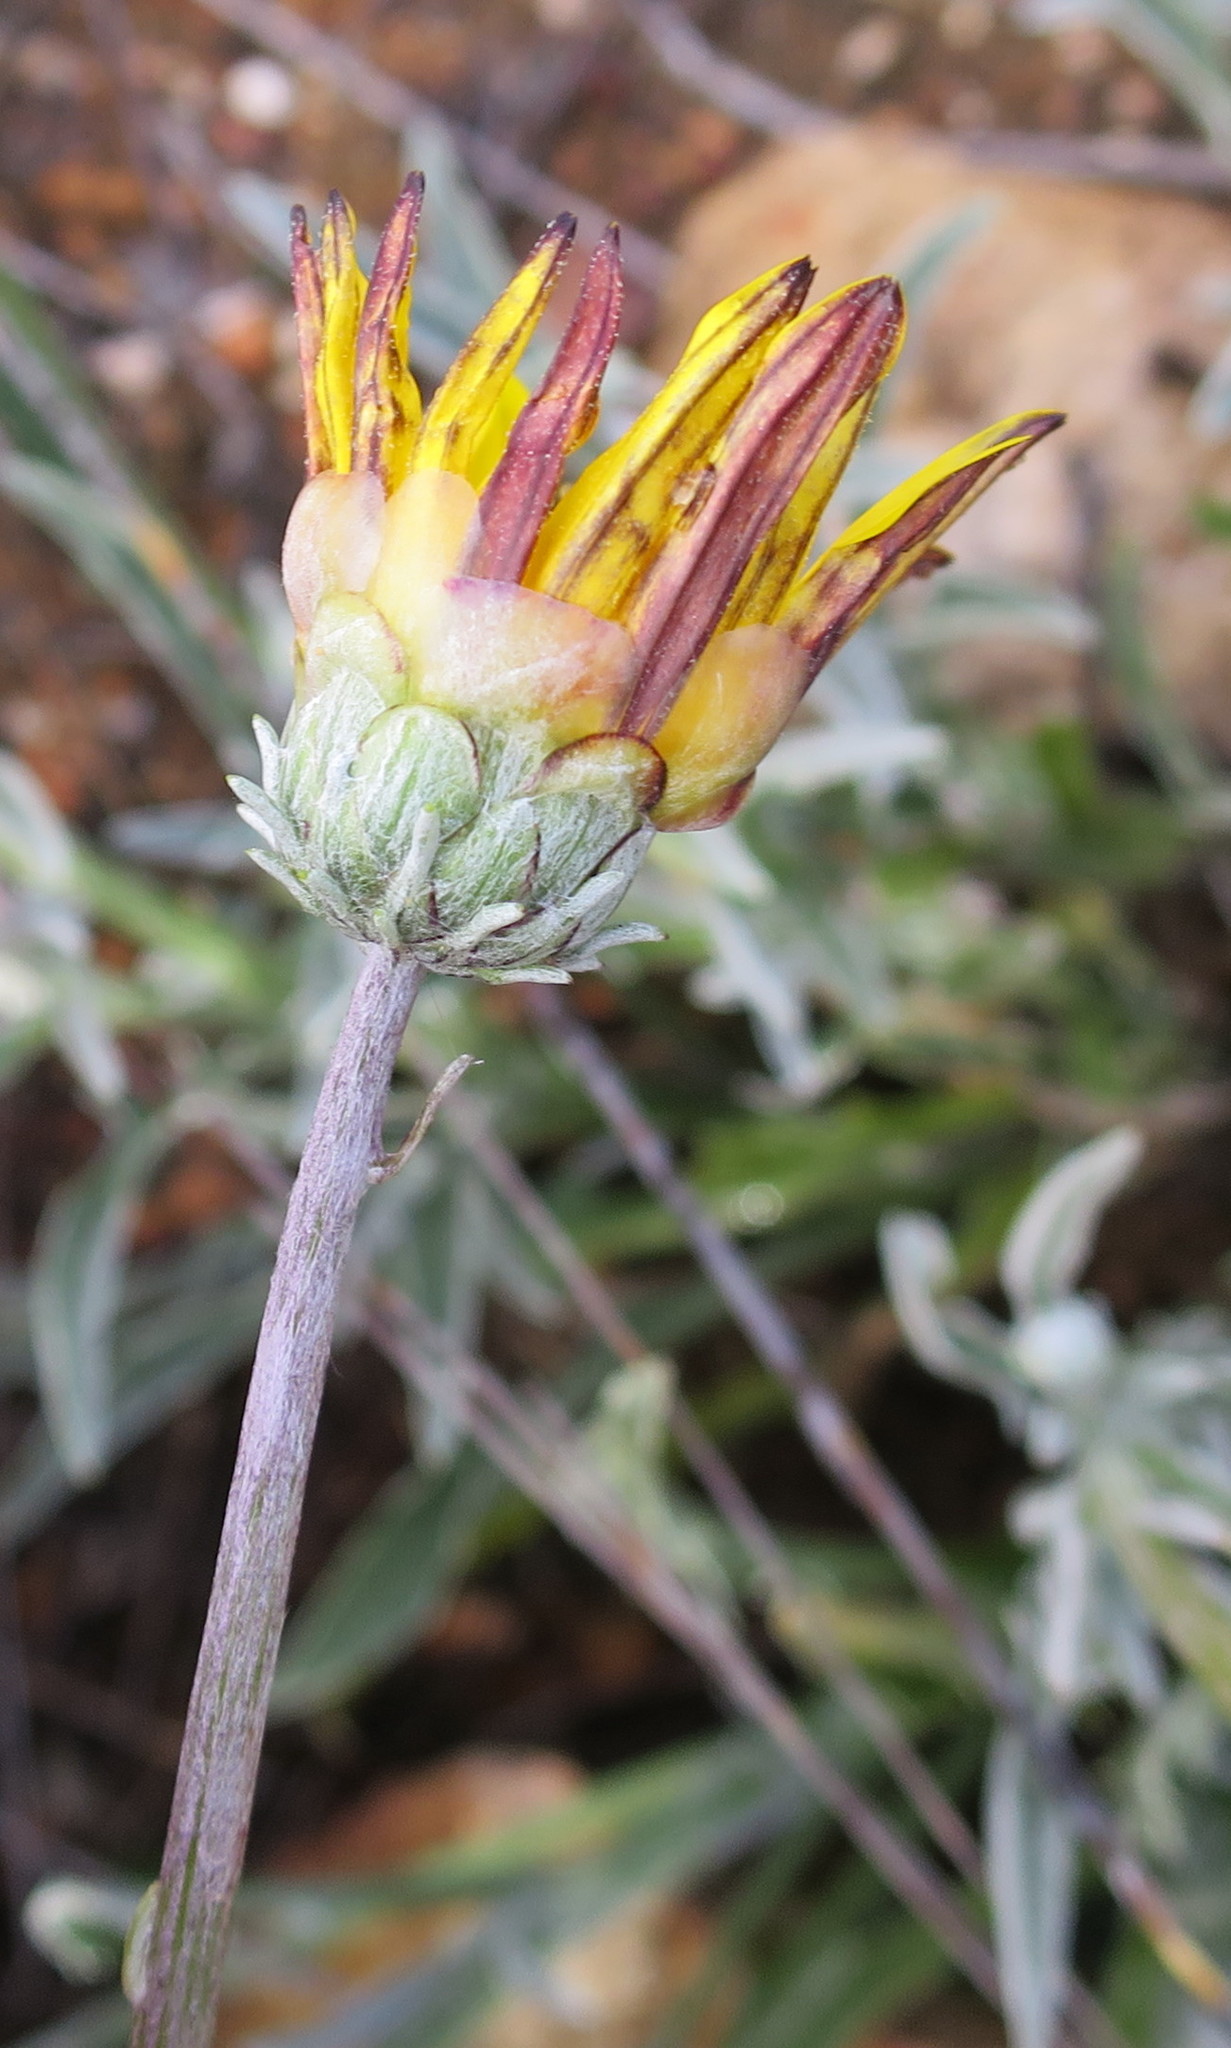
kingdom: Plantae
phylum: Tracheophyta
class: Magnoliopsida
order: Asterales
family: Asteraceae
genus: Arctotis
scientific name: Arctotis lanceolata
